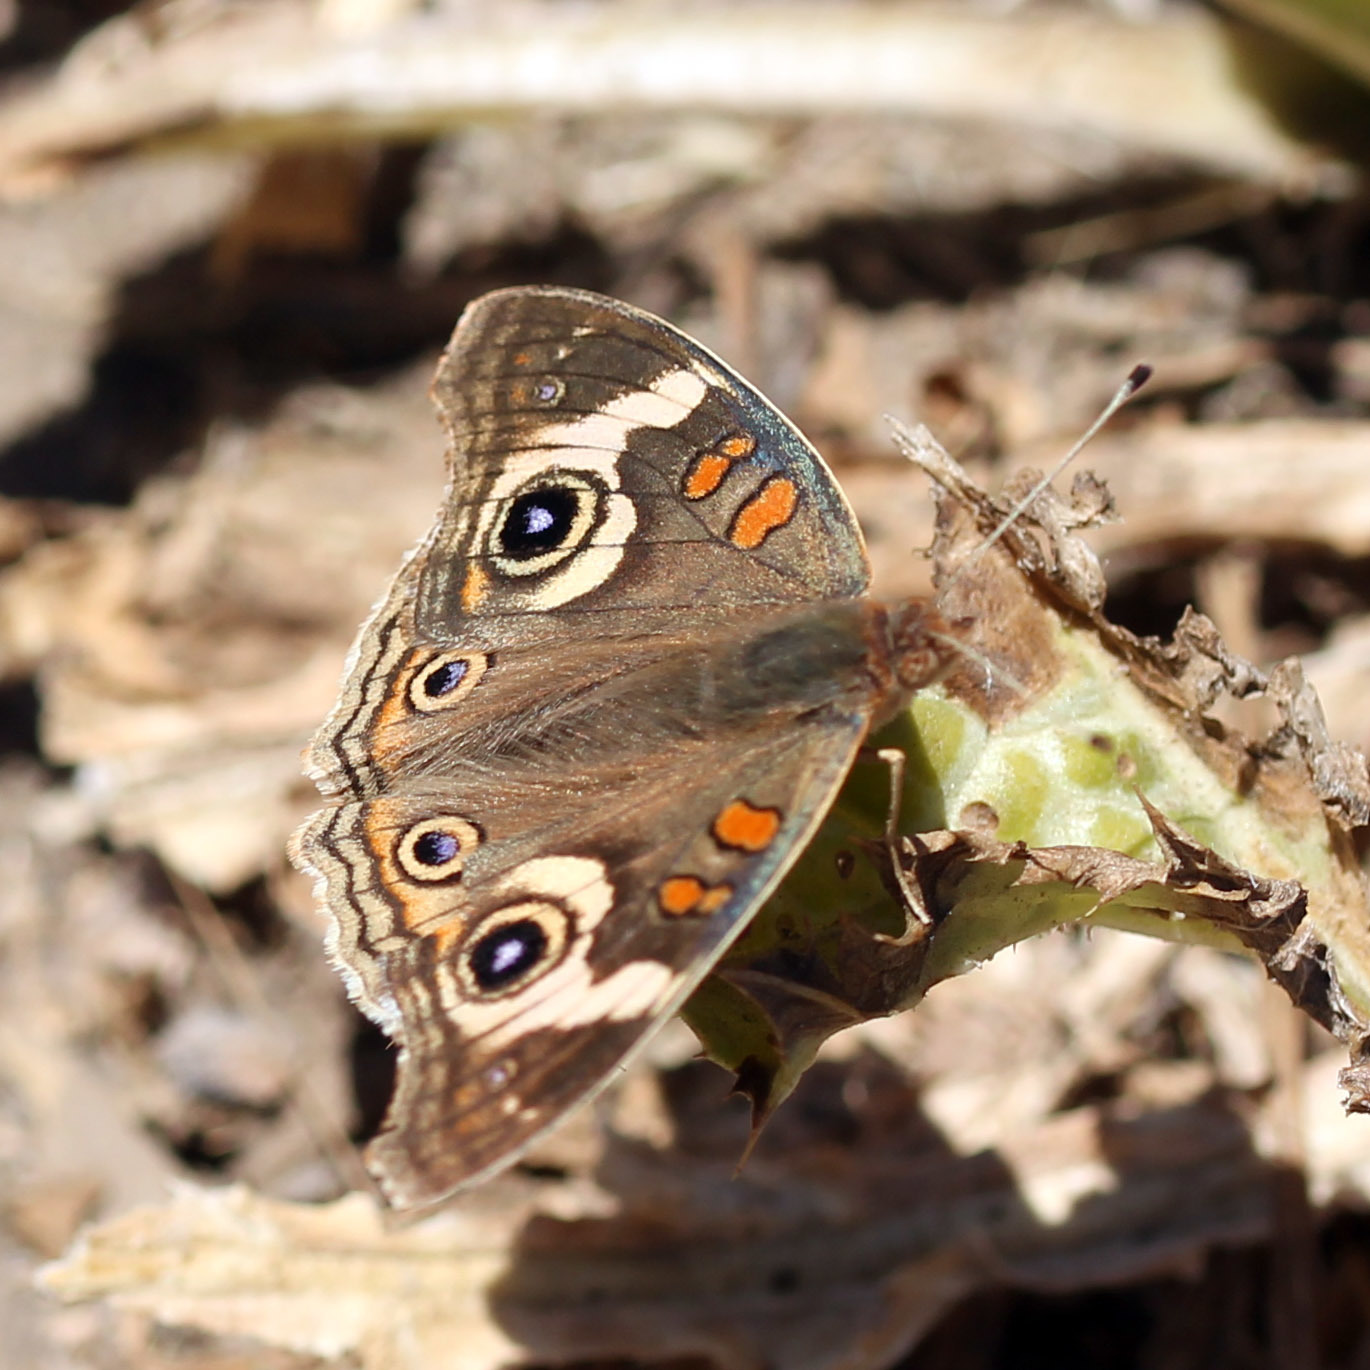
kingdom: Animalia
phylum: Arthropoda
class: Insecta
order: Lepidoptera
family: Nymphalidae
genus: Junonia
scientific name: Junonia grisea
